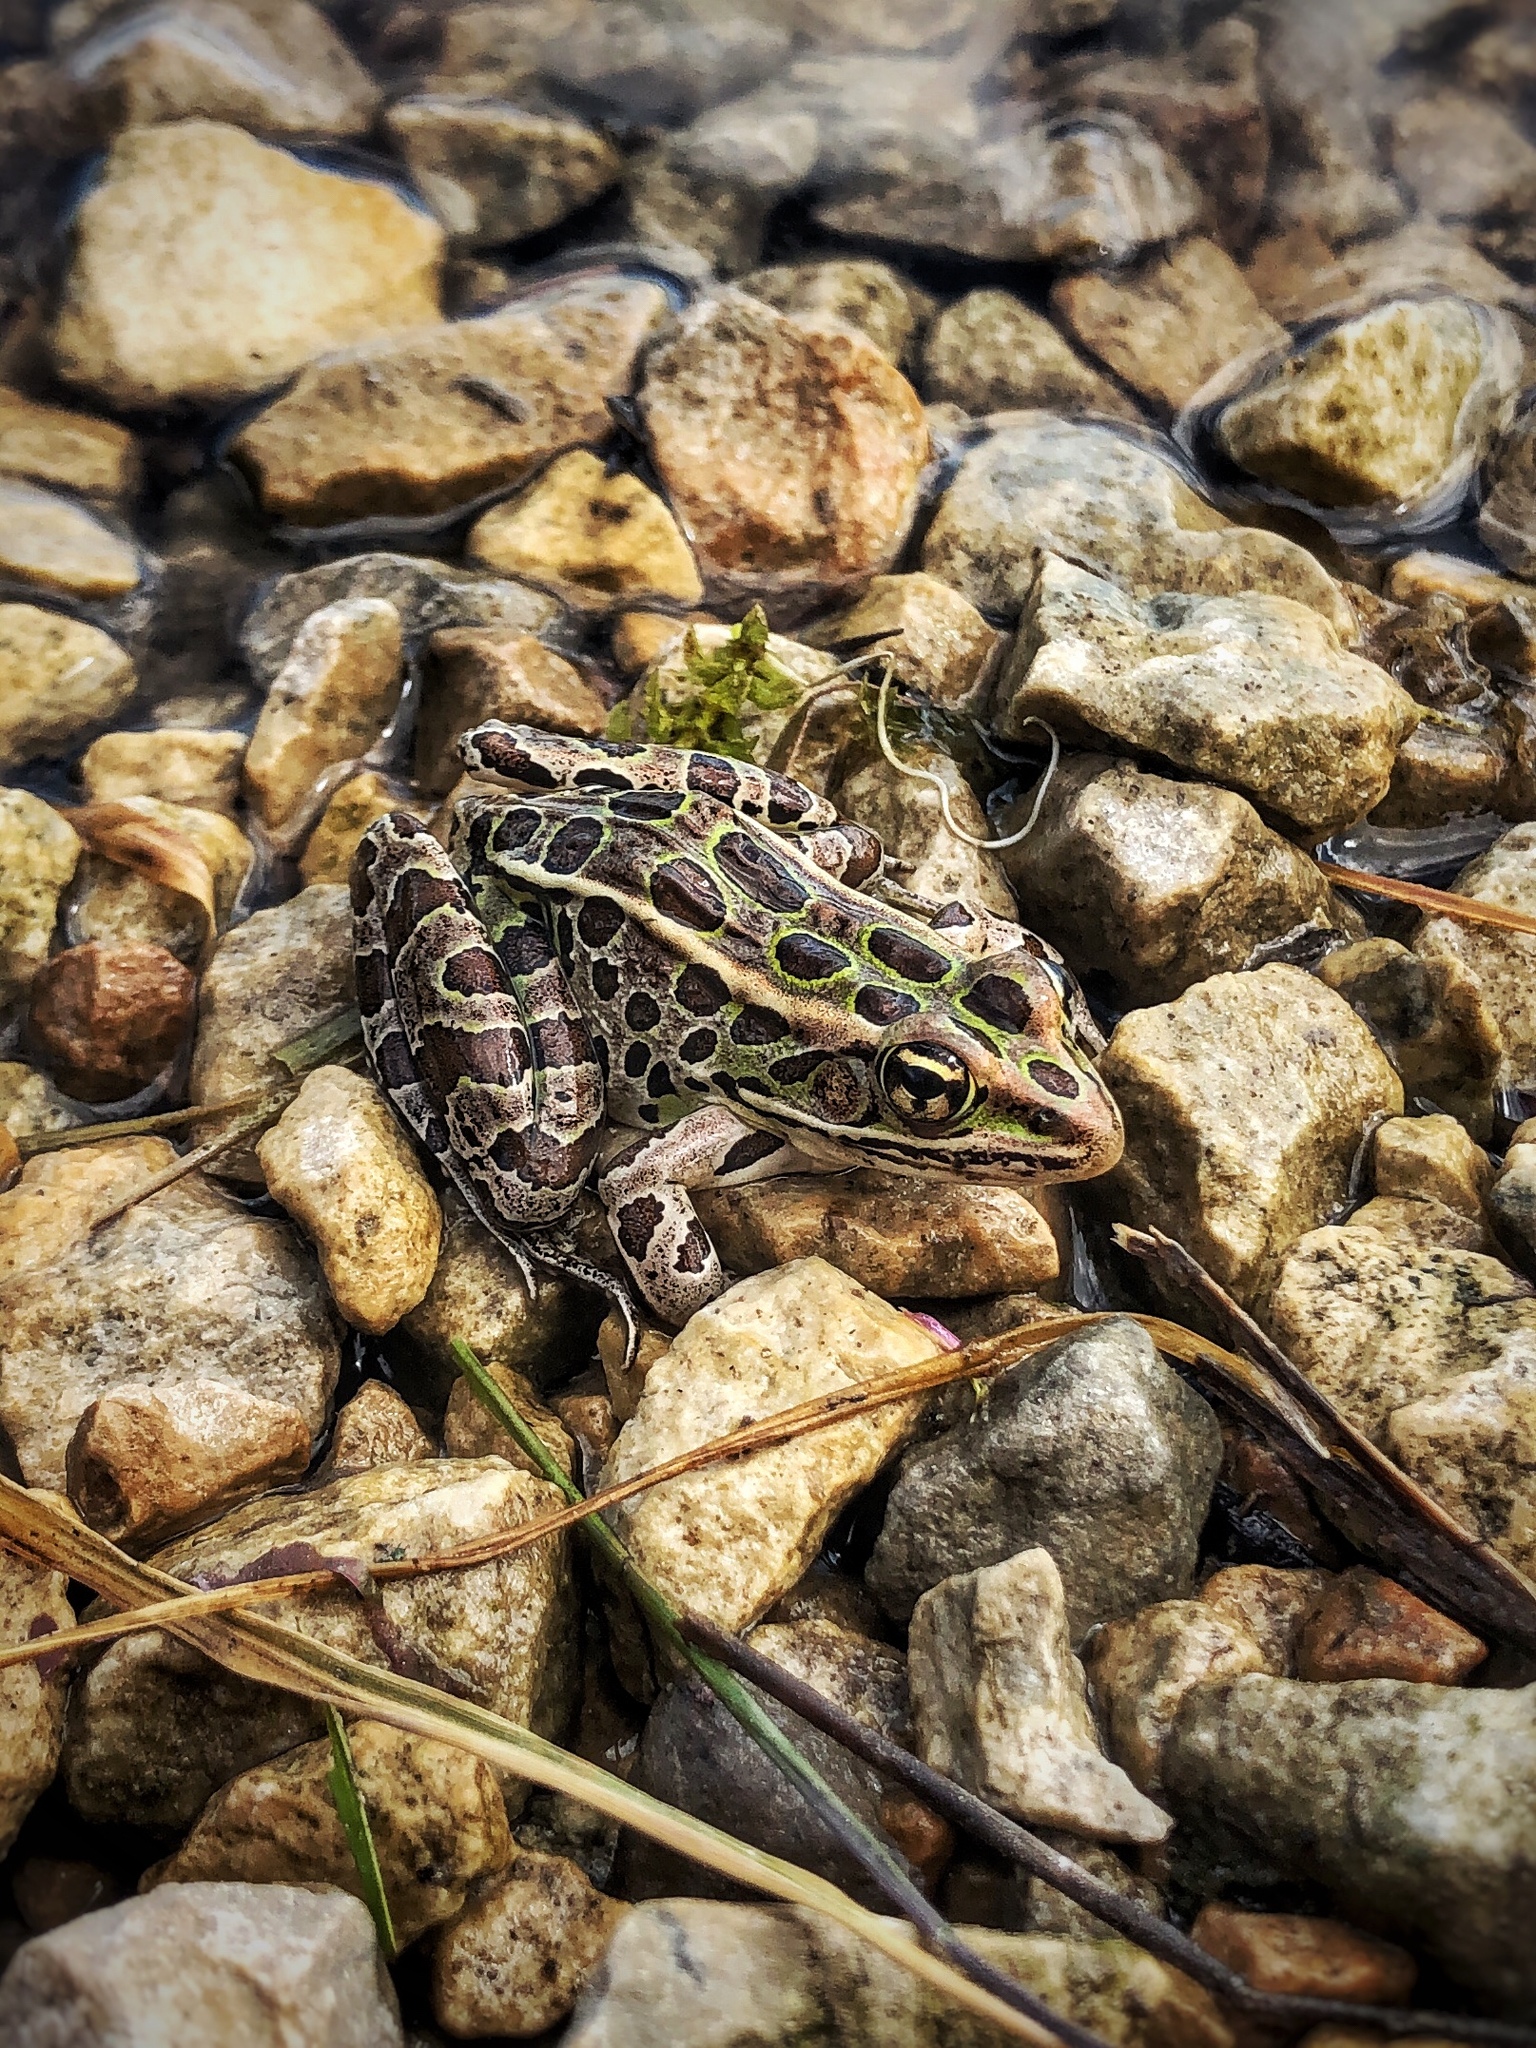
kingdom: Animalia
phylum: Chordata
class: Amphibia
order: Anura
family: Ranidae
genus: Lithobates
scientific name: Lithobates pipiens
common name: Northern leopard frog
